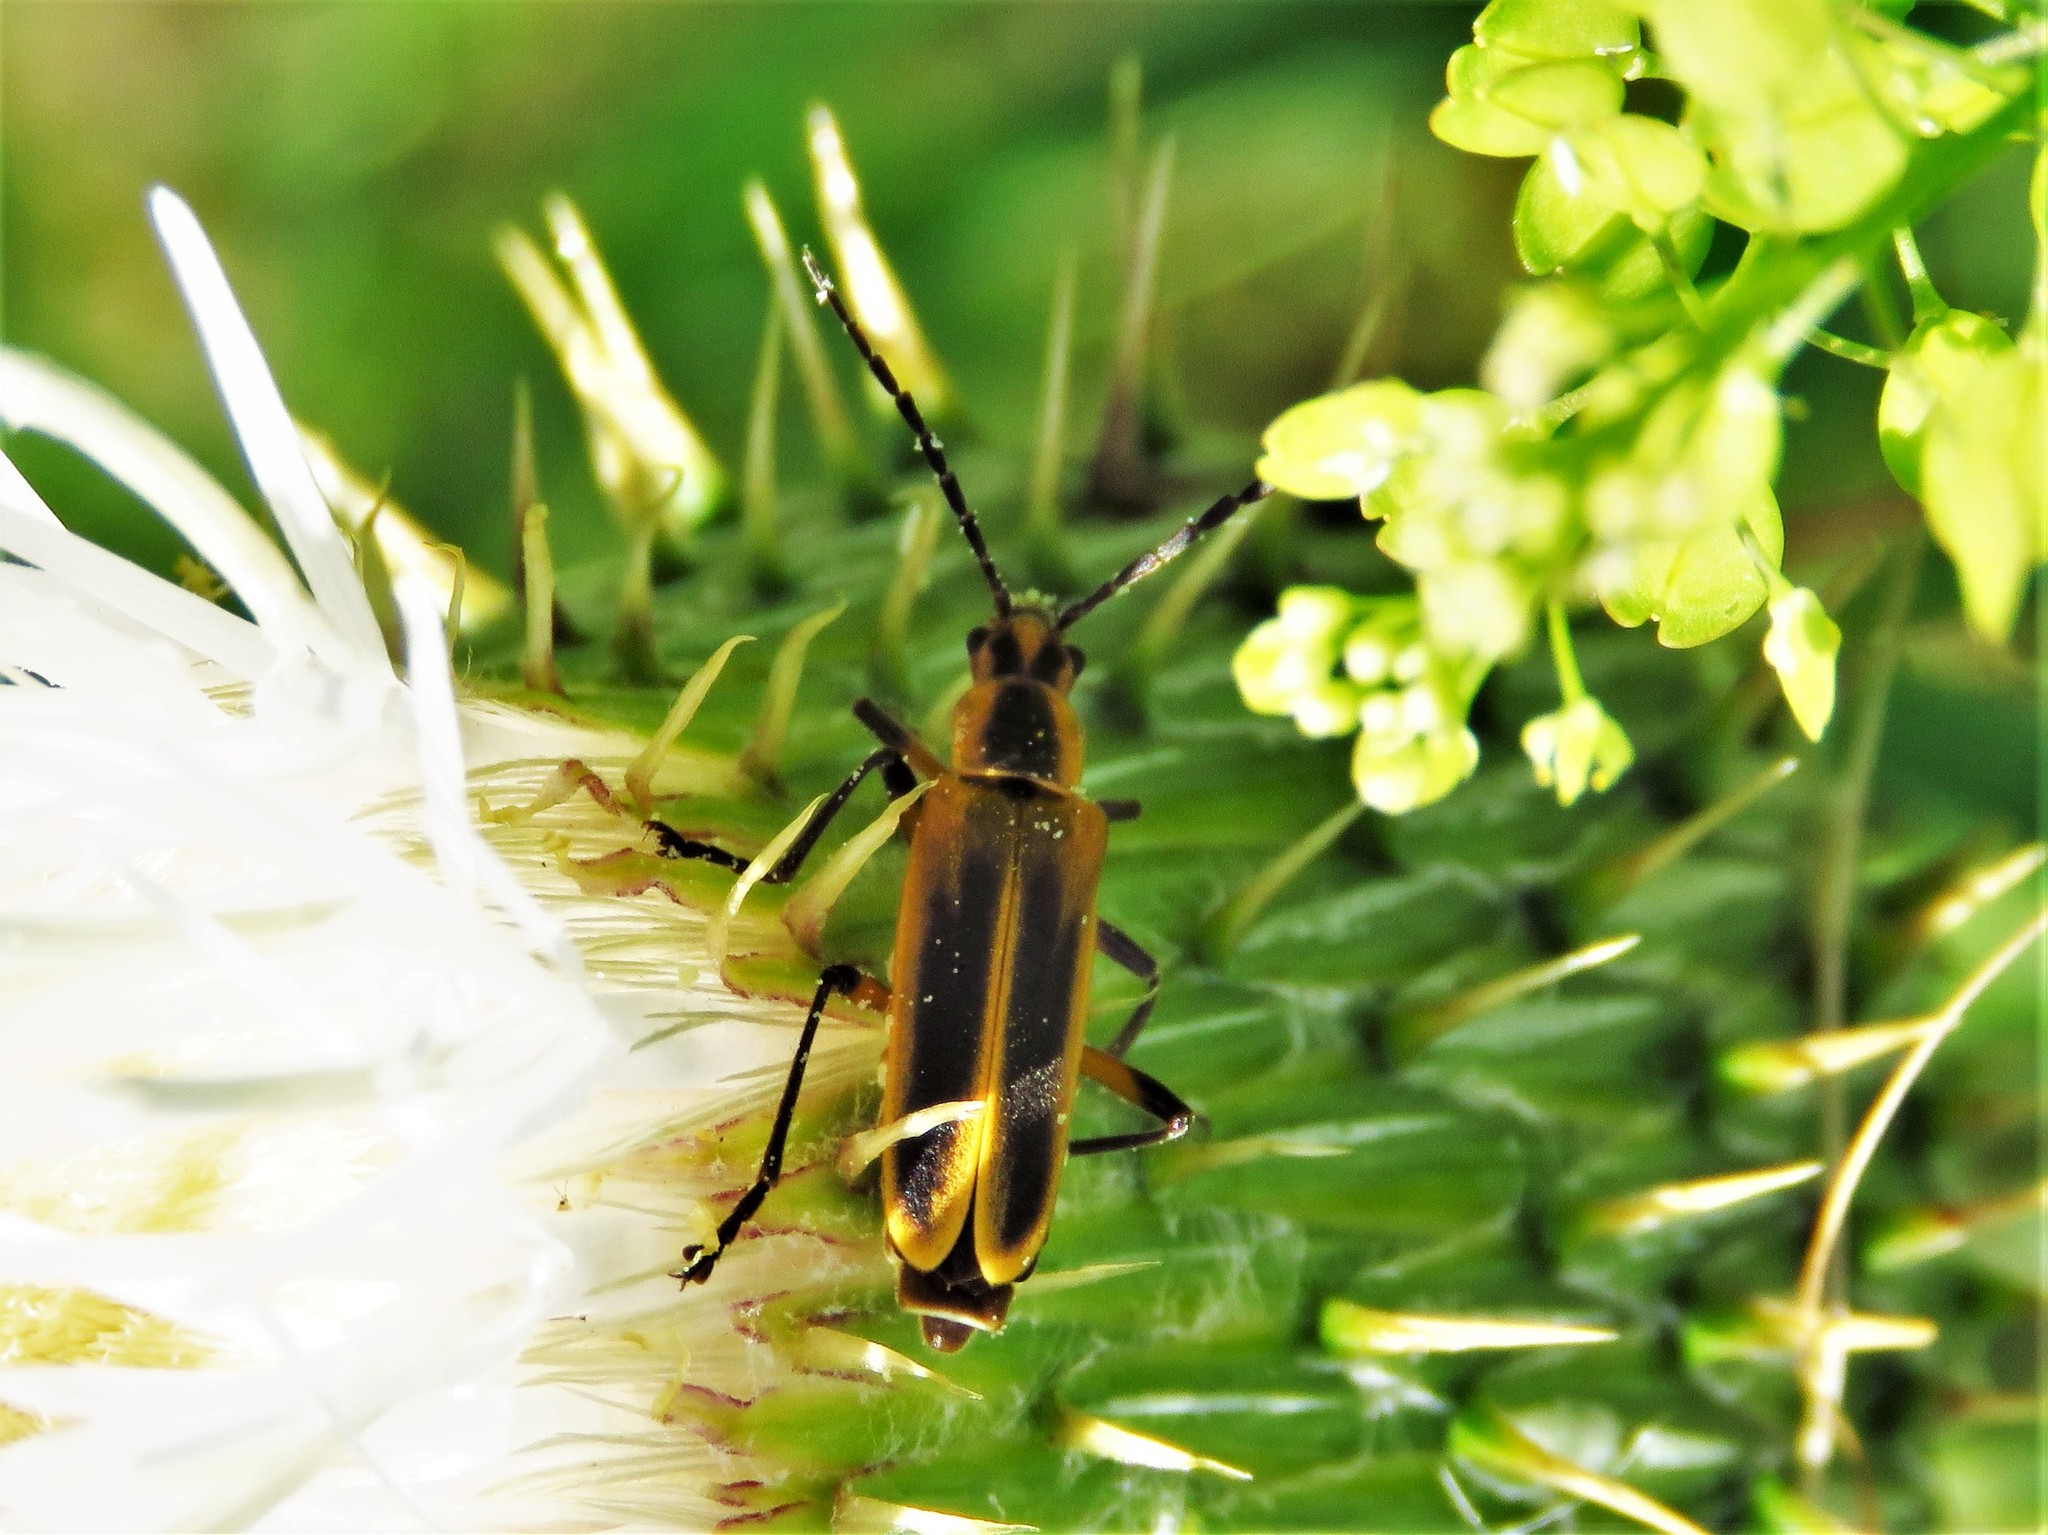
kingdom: Animalia
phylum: Arthropoda
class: Insecta
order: Coleoptera
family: Cantharidae
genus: Chauliognathus
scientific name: Chauliognathus marginatus
